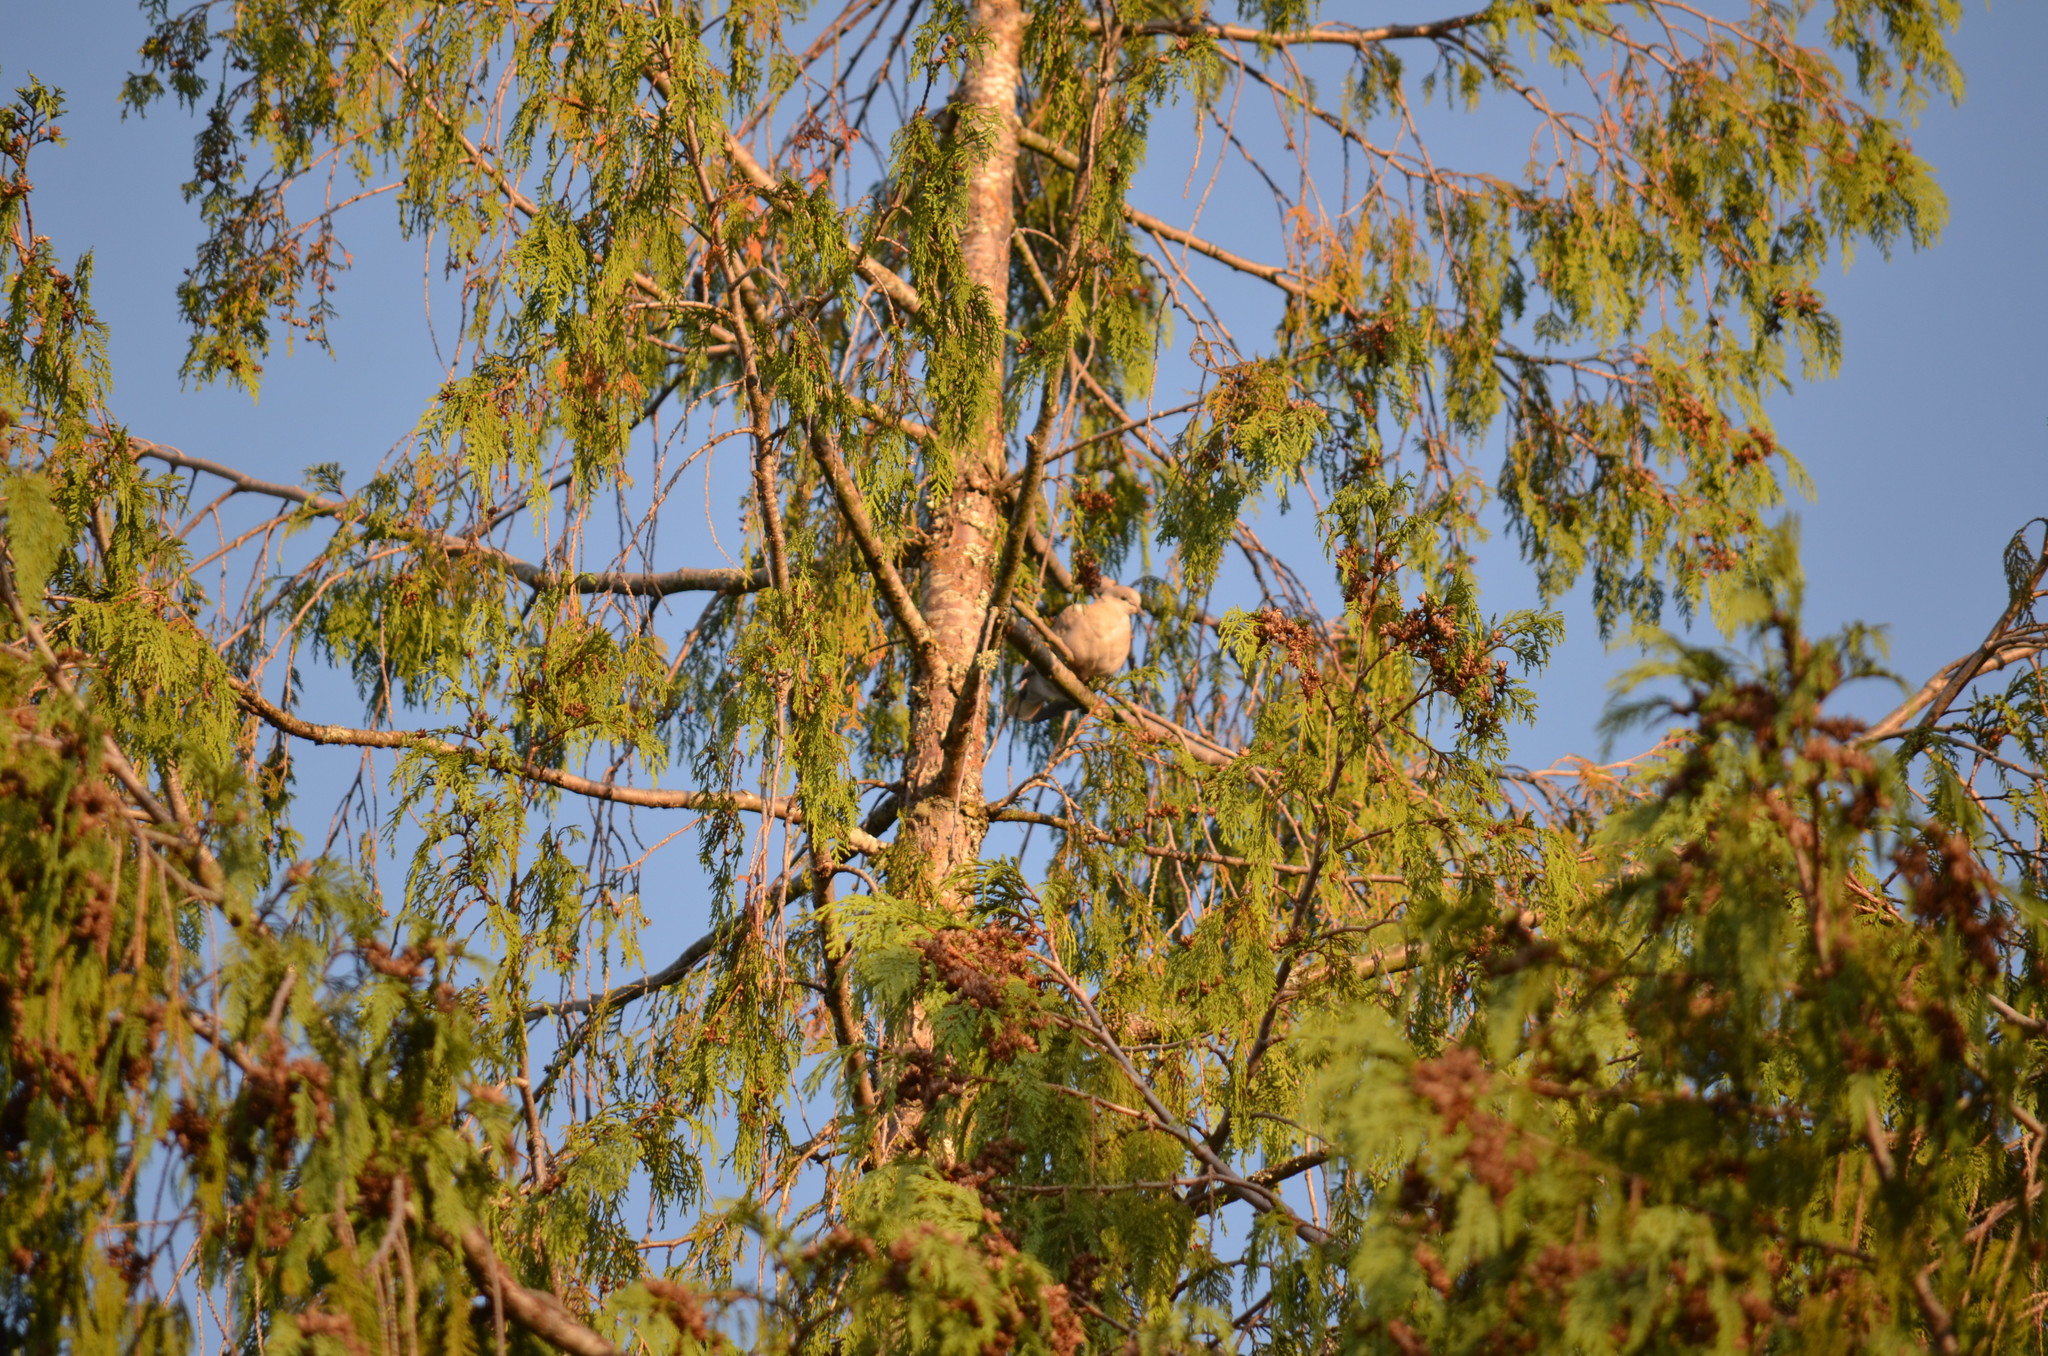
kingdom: Animalia
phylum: Chordata
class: Aves
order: Columbiformes
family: Columbidae
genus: Streptopelia
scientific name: Streptopelia decaocto
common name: Eurasian collared dove
